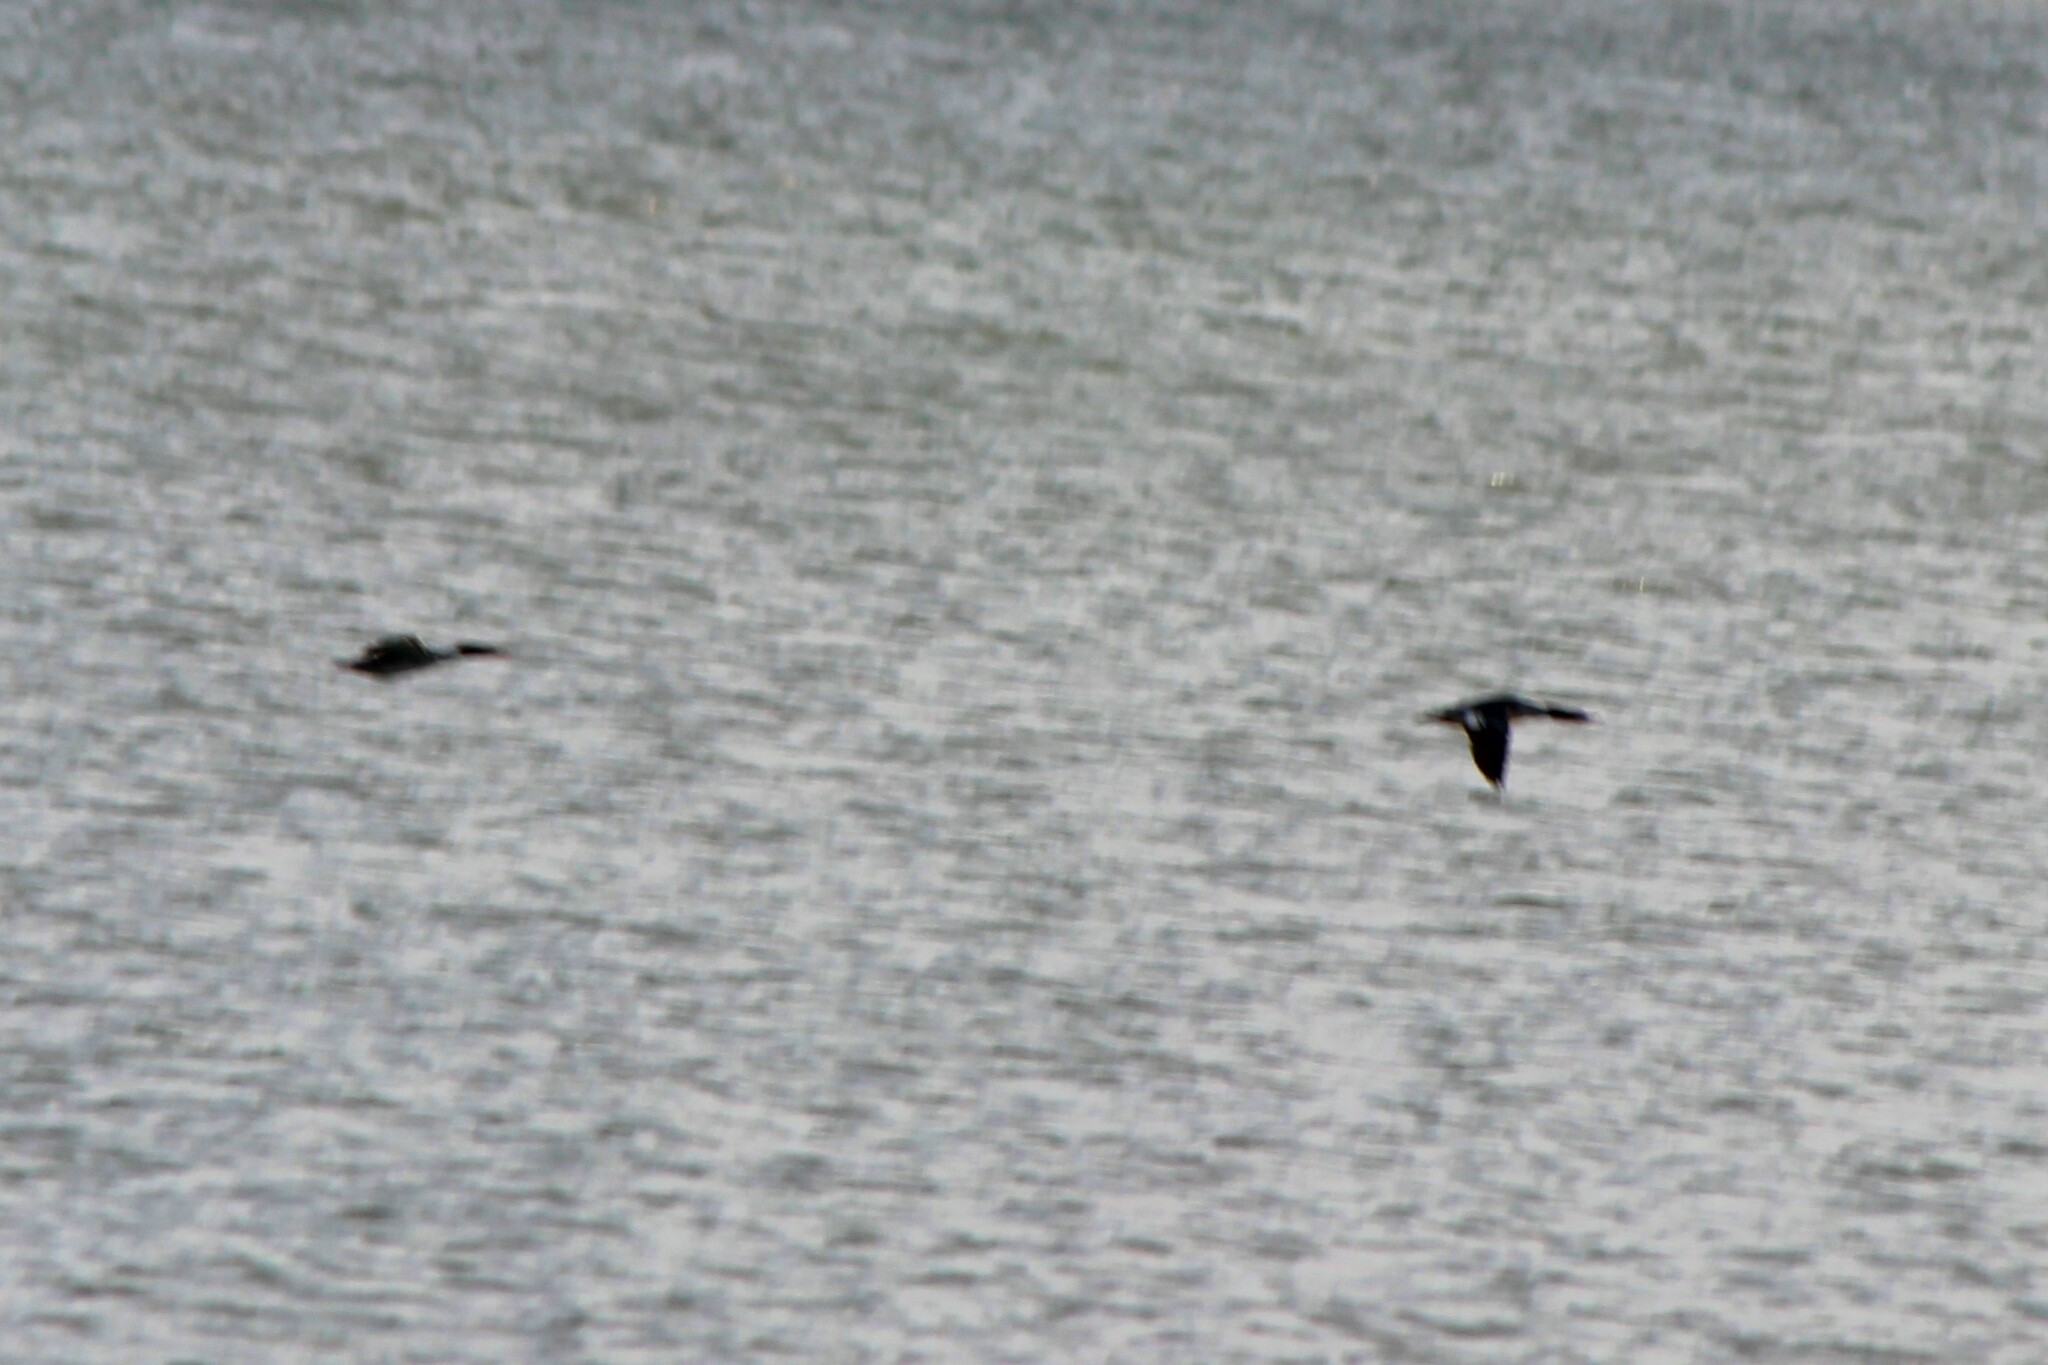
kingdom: Animalia
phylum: Chordata
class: Aves
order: Anseriformes
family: Anatidae
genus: Mergus
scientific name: Mergus merganser
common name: Common merganser
